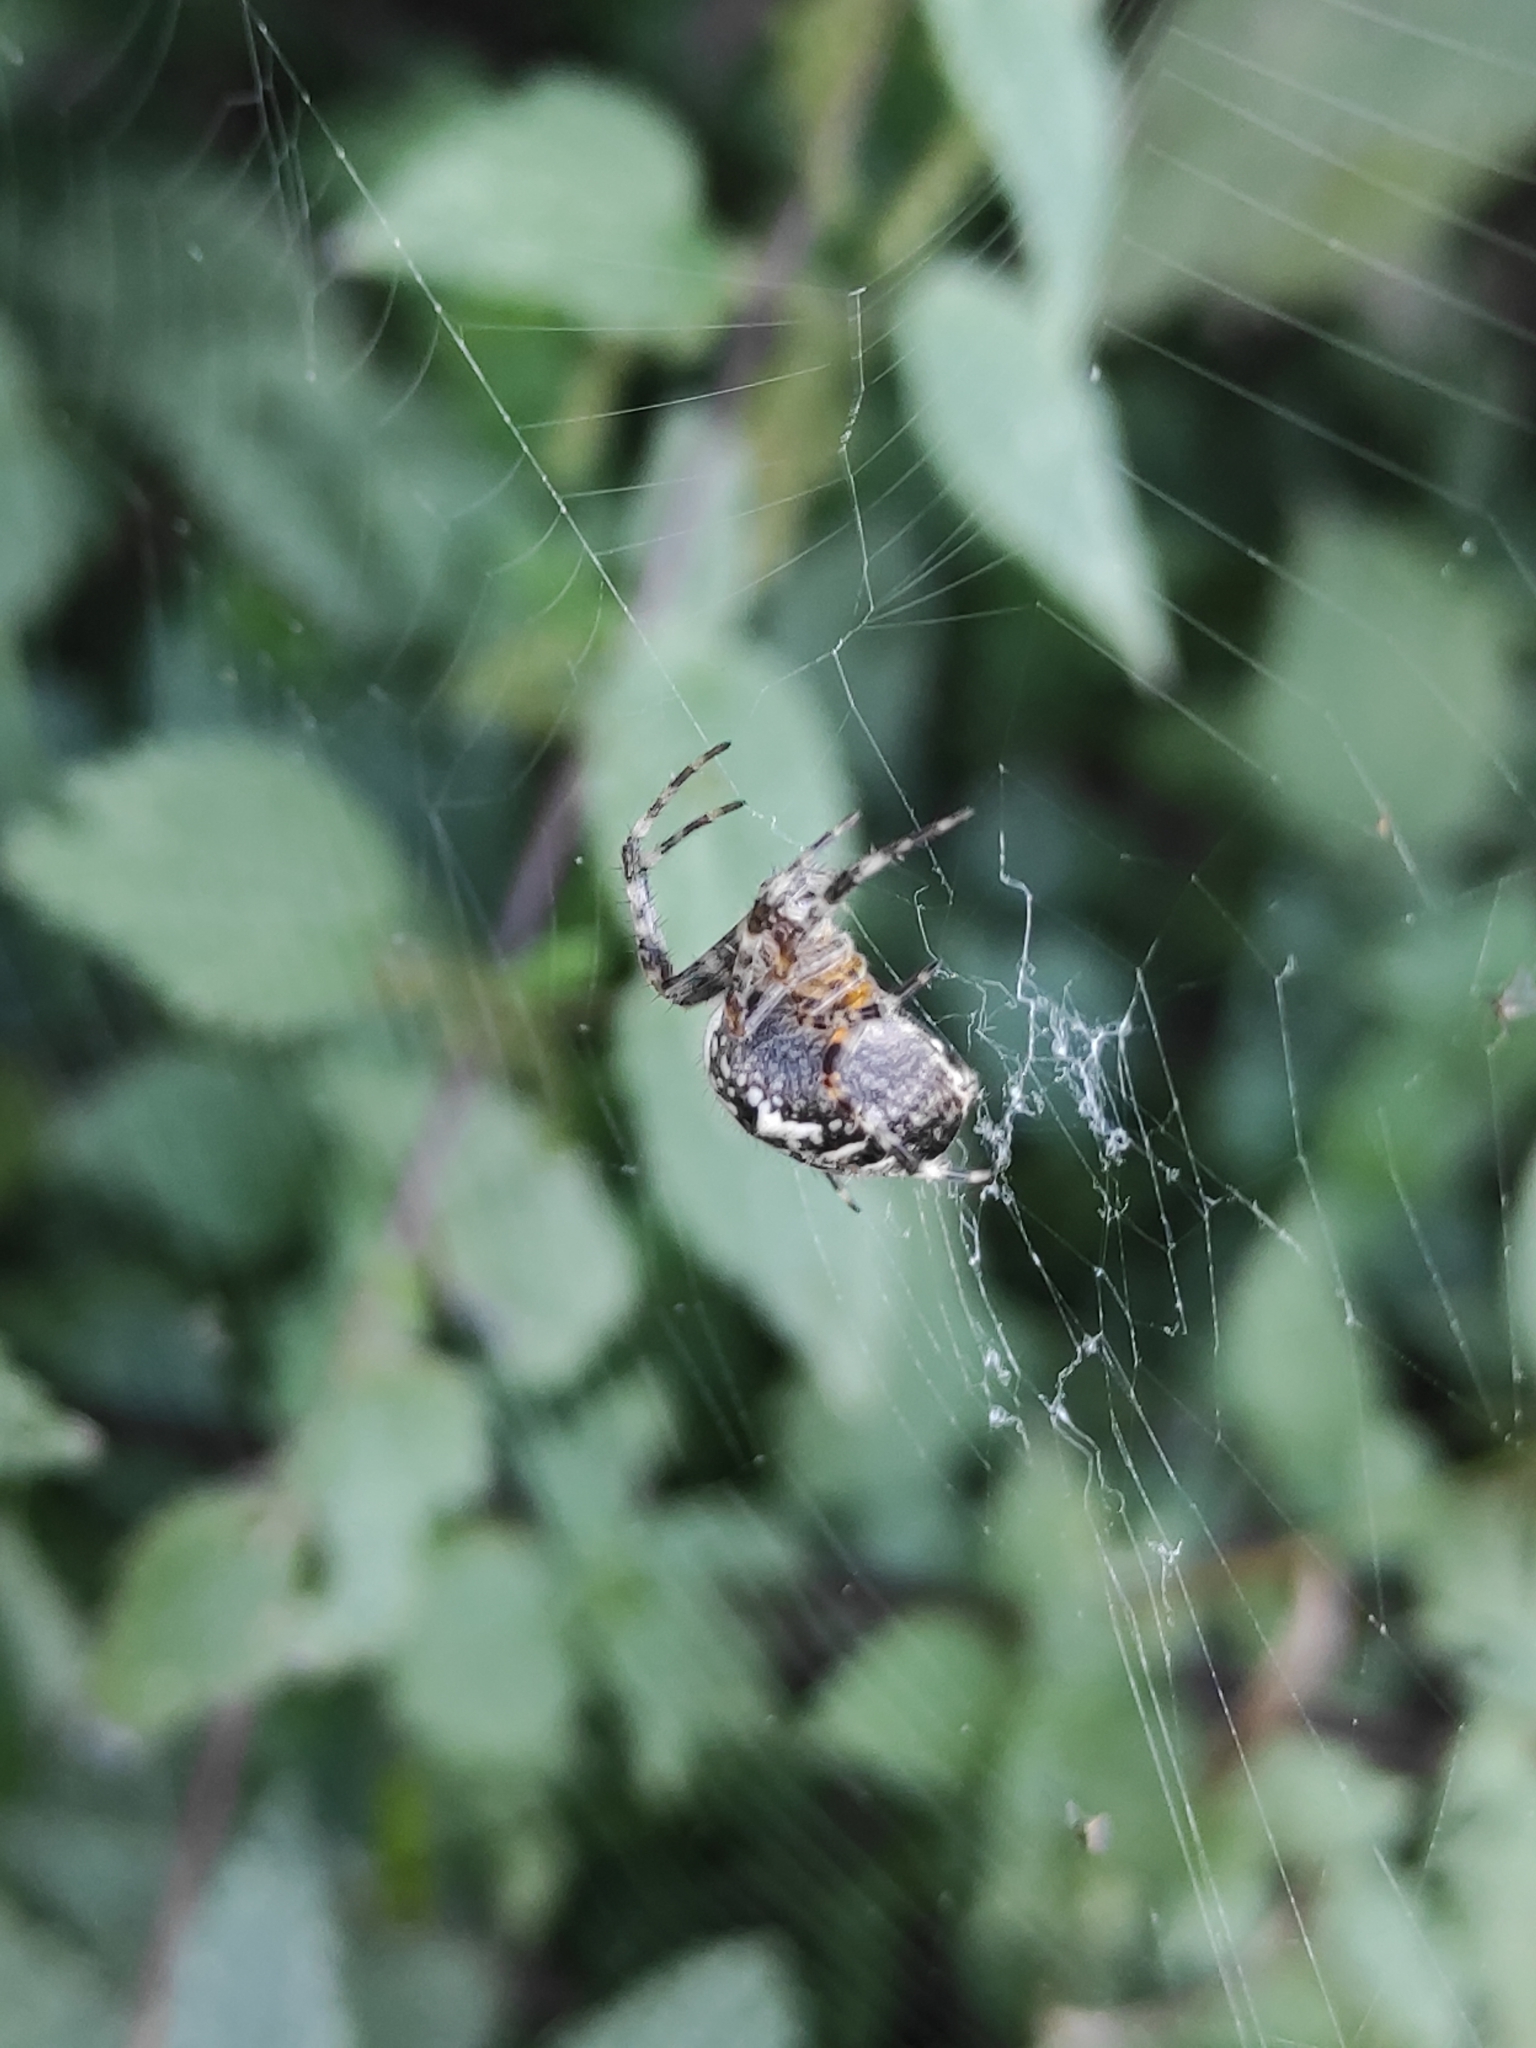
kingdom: Animalia
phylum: Arthropoda
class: Arachnida
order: Araneae
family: Araneidae
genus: Araneus
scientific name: Araneus diadematus
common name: Cross orbweaver
